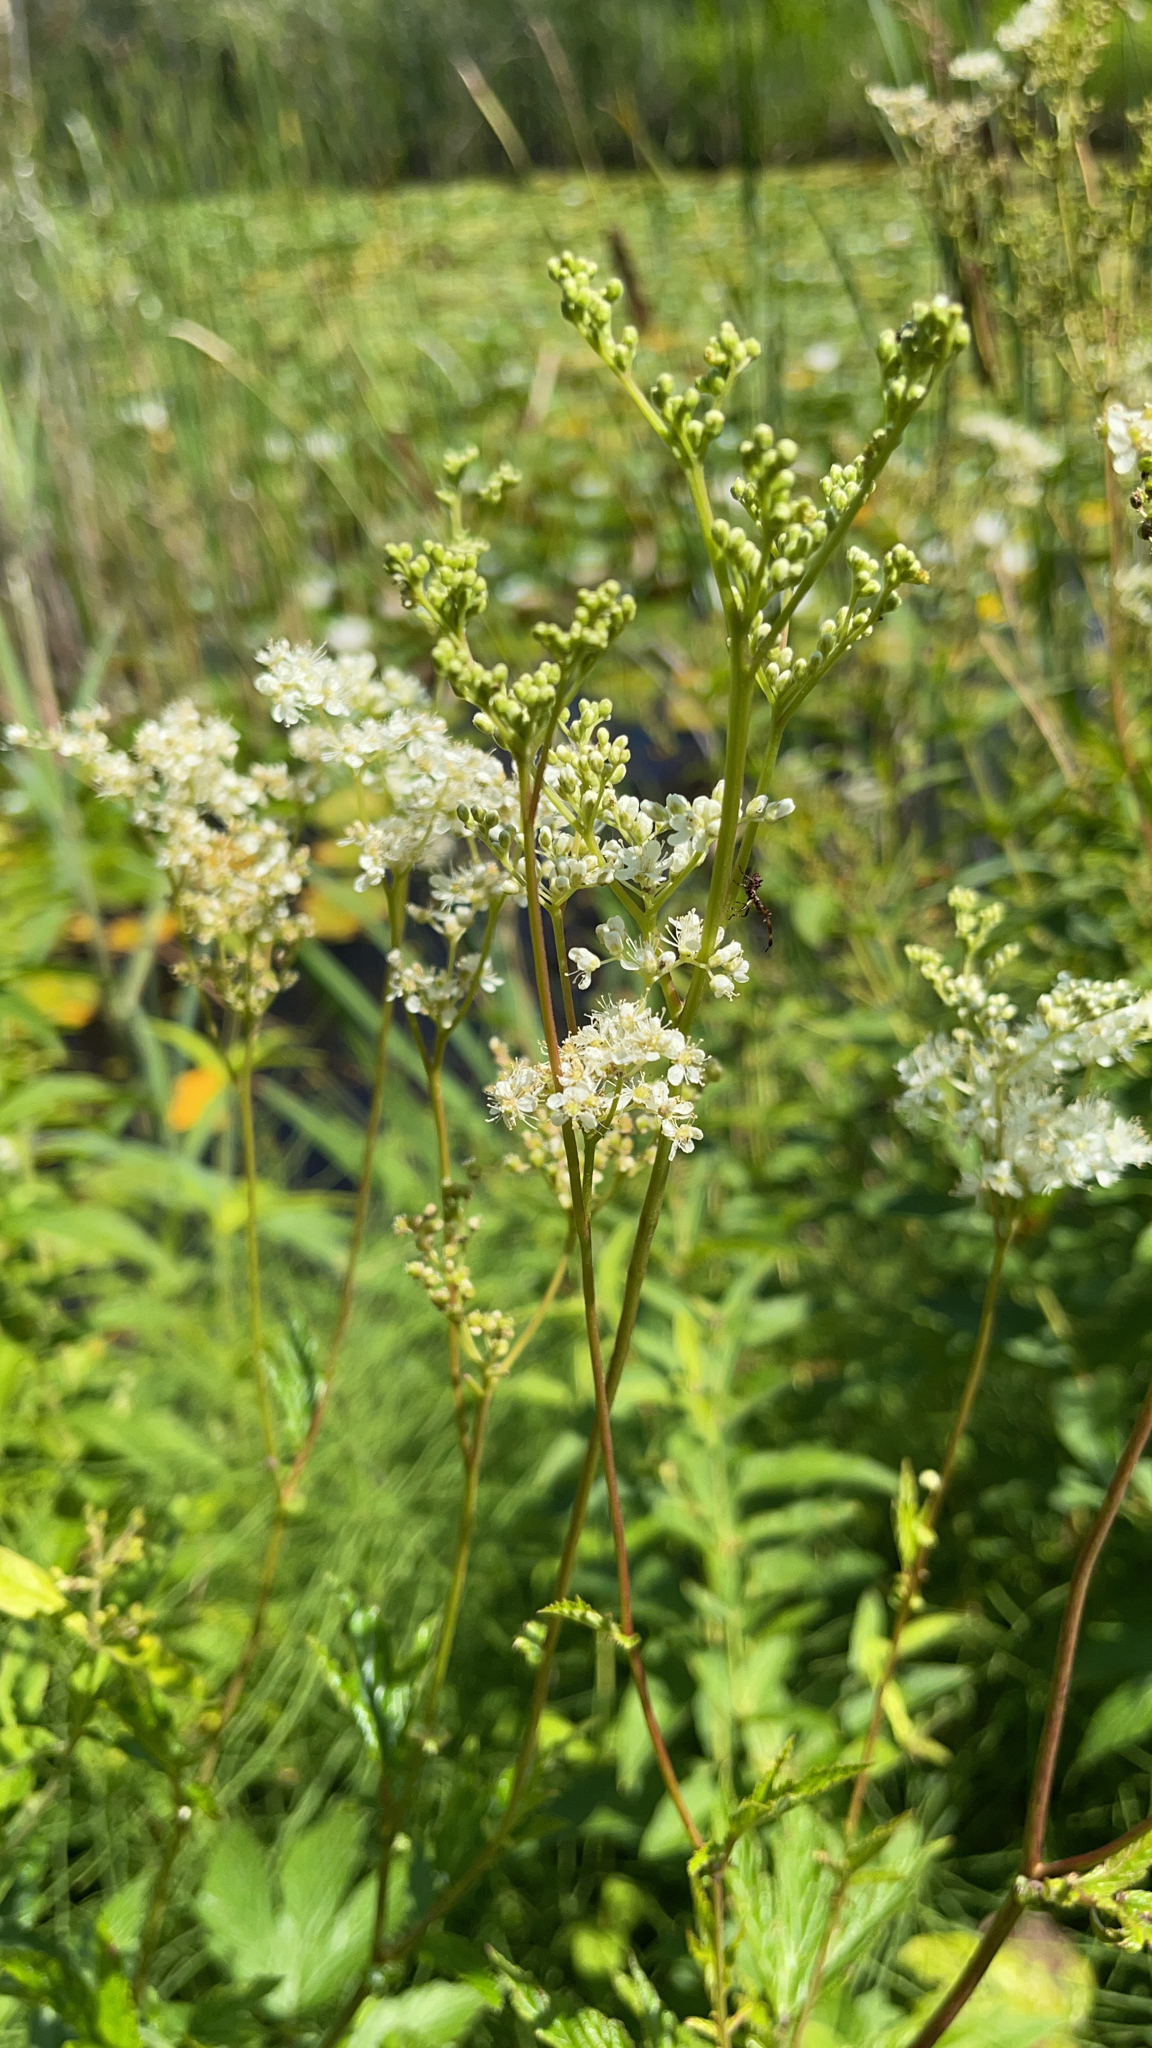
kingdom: Plantae
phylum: Tracheophyta
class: Magnoliopsida
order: Rosales
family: Rosaceae
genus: Filipendula
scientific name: Filipendula ulmaria
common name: Meadowsweet
